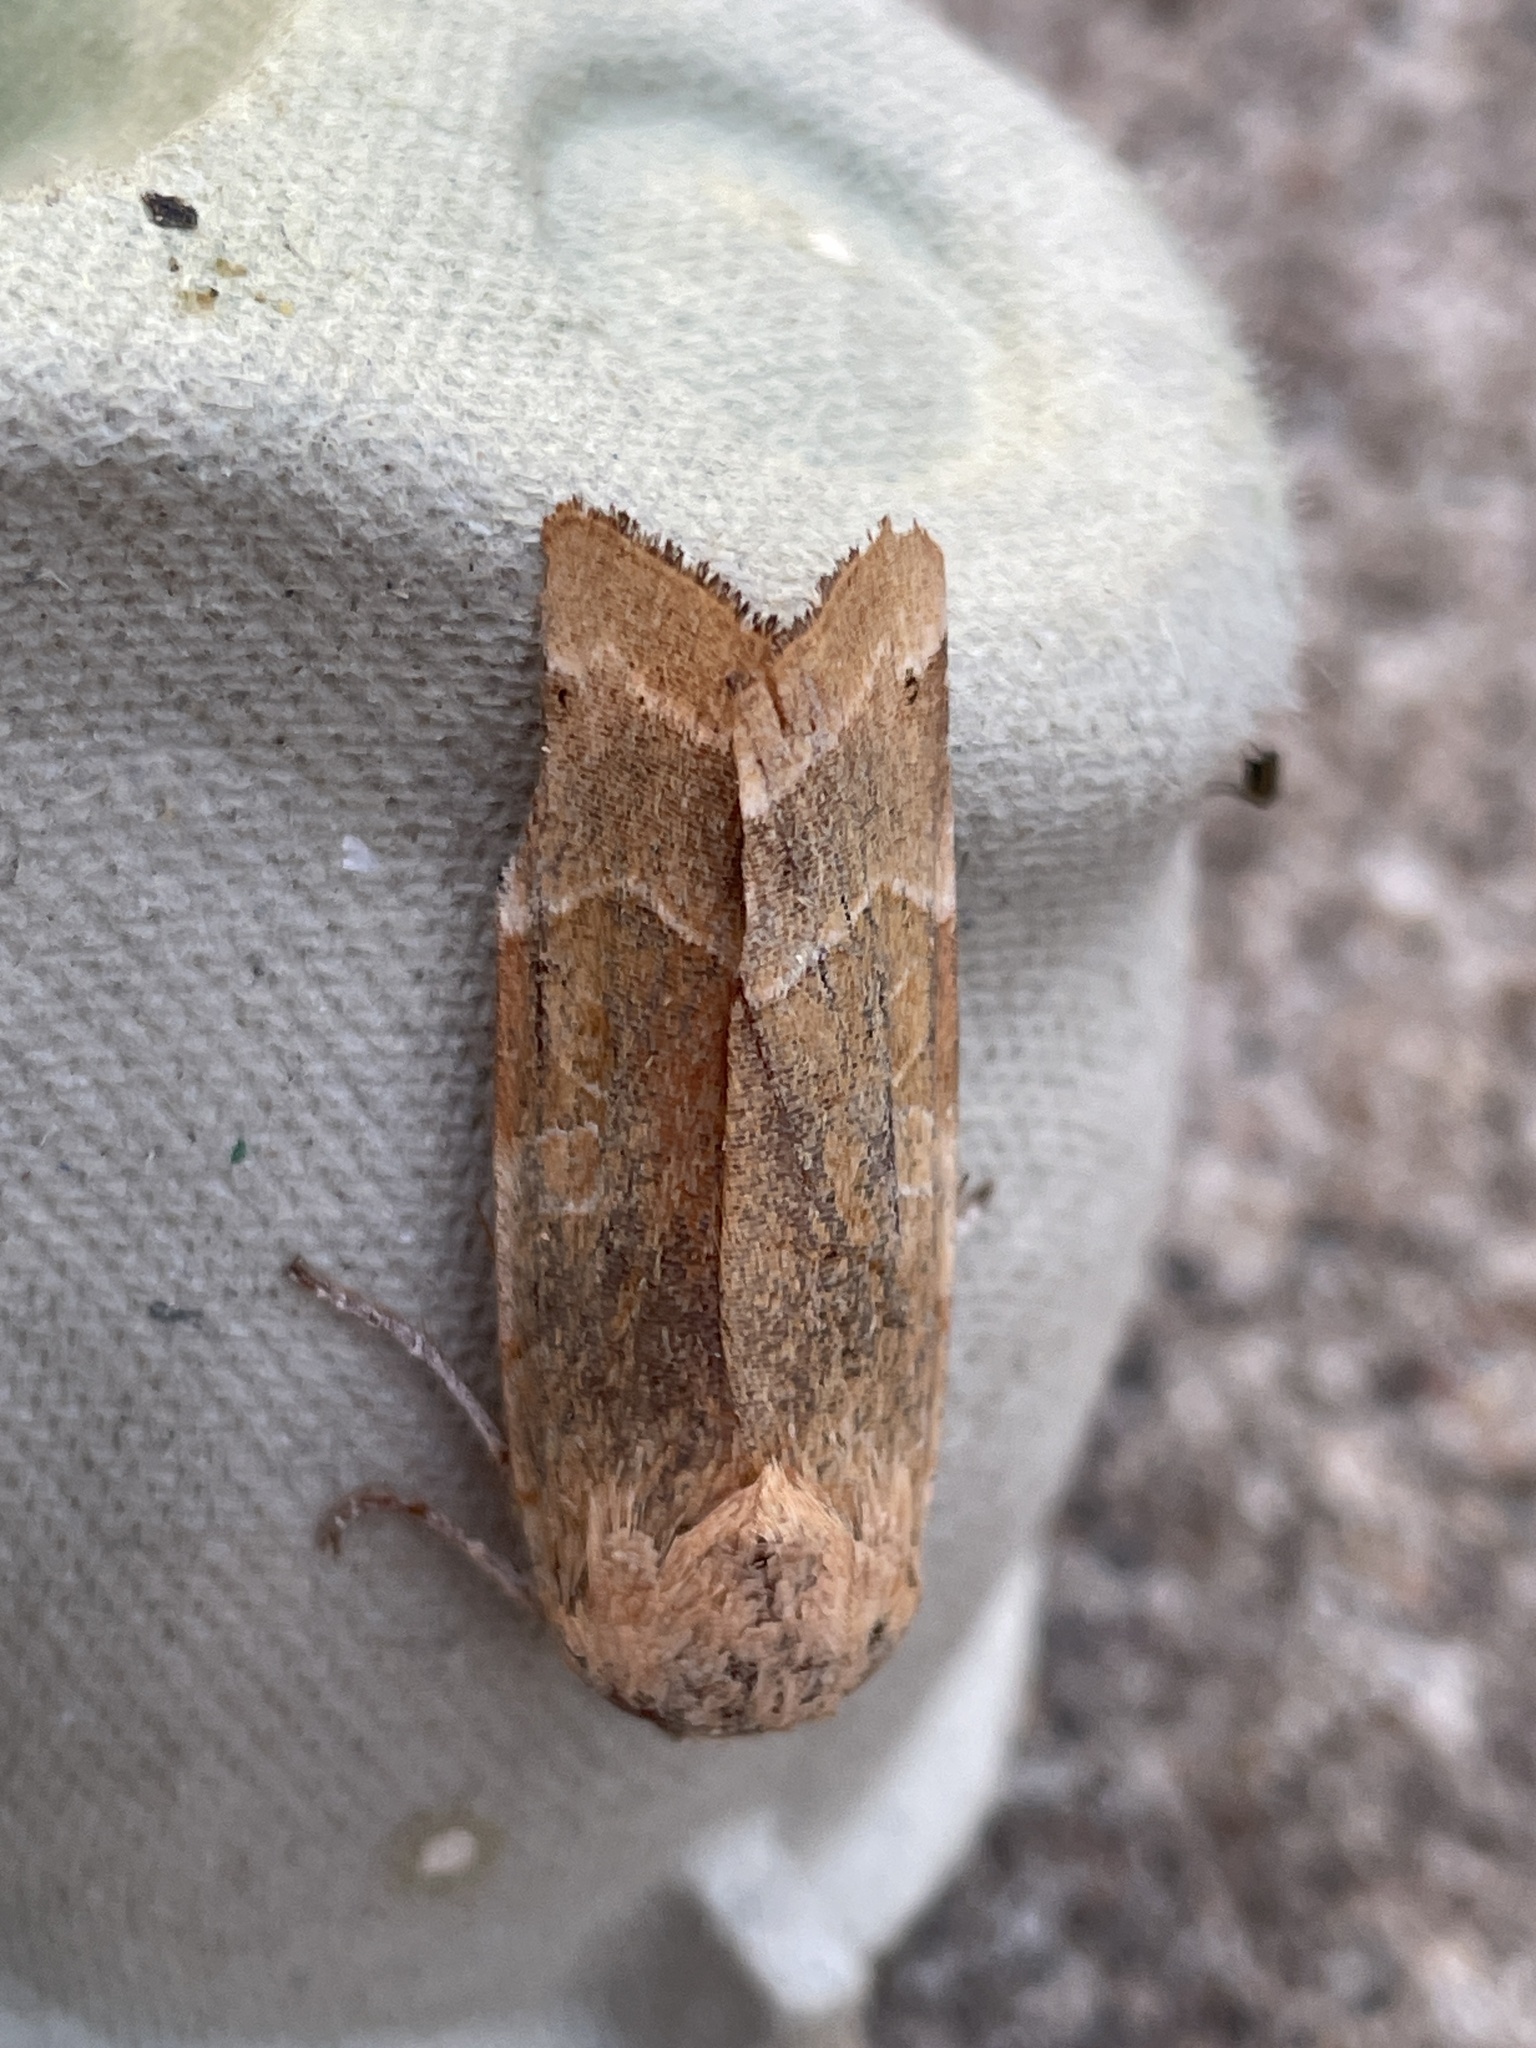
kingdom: Animalia
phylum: Arthropoda
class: Insecta
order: Lepidoptera
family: Noctuidae
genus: Noctua
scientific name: Noctua fimbriata
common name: Broad-bordered yellow underwing
